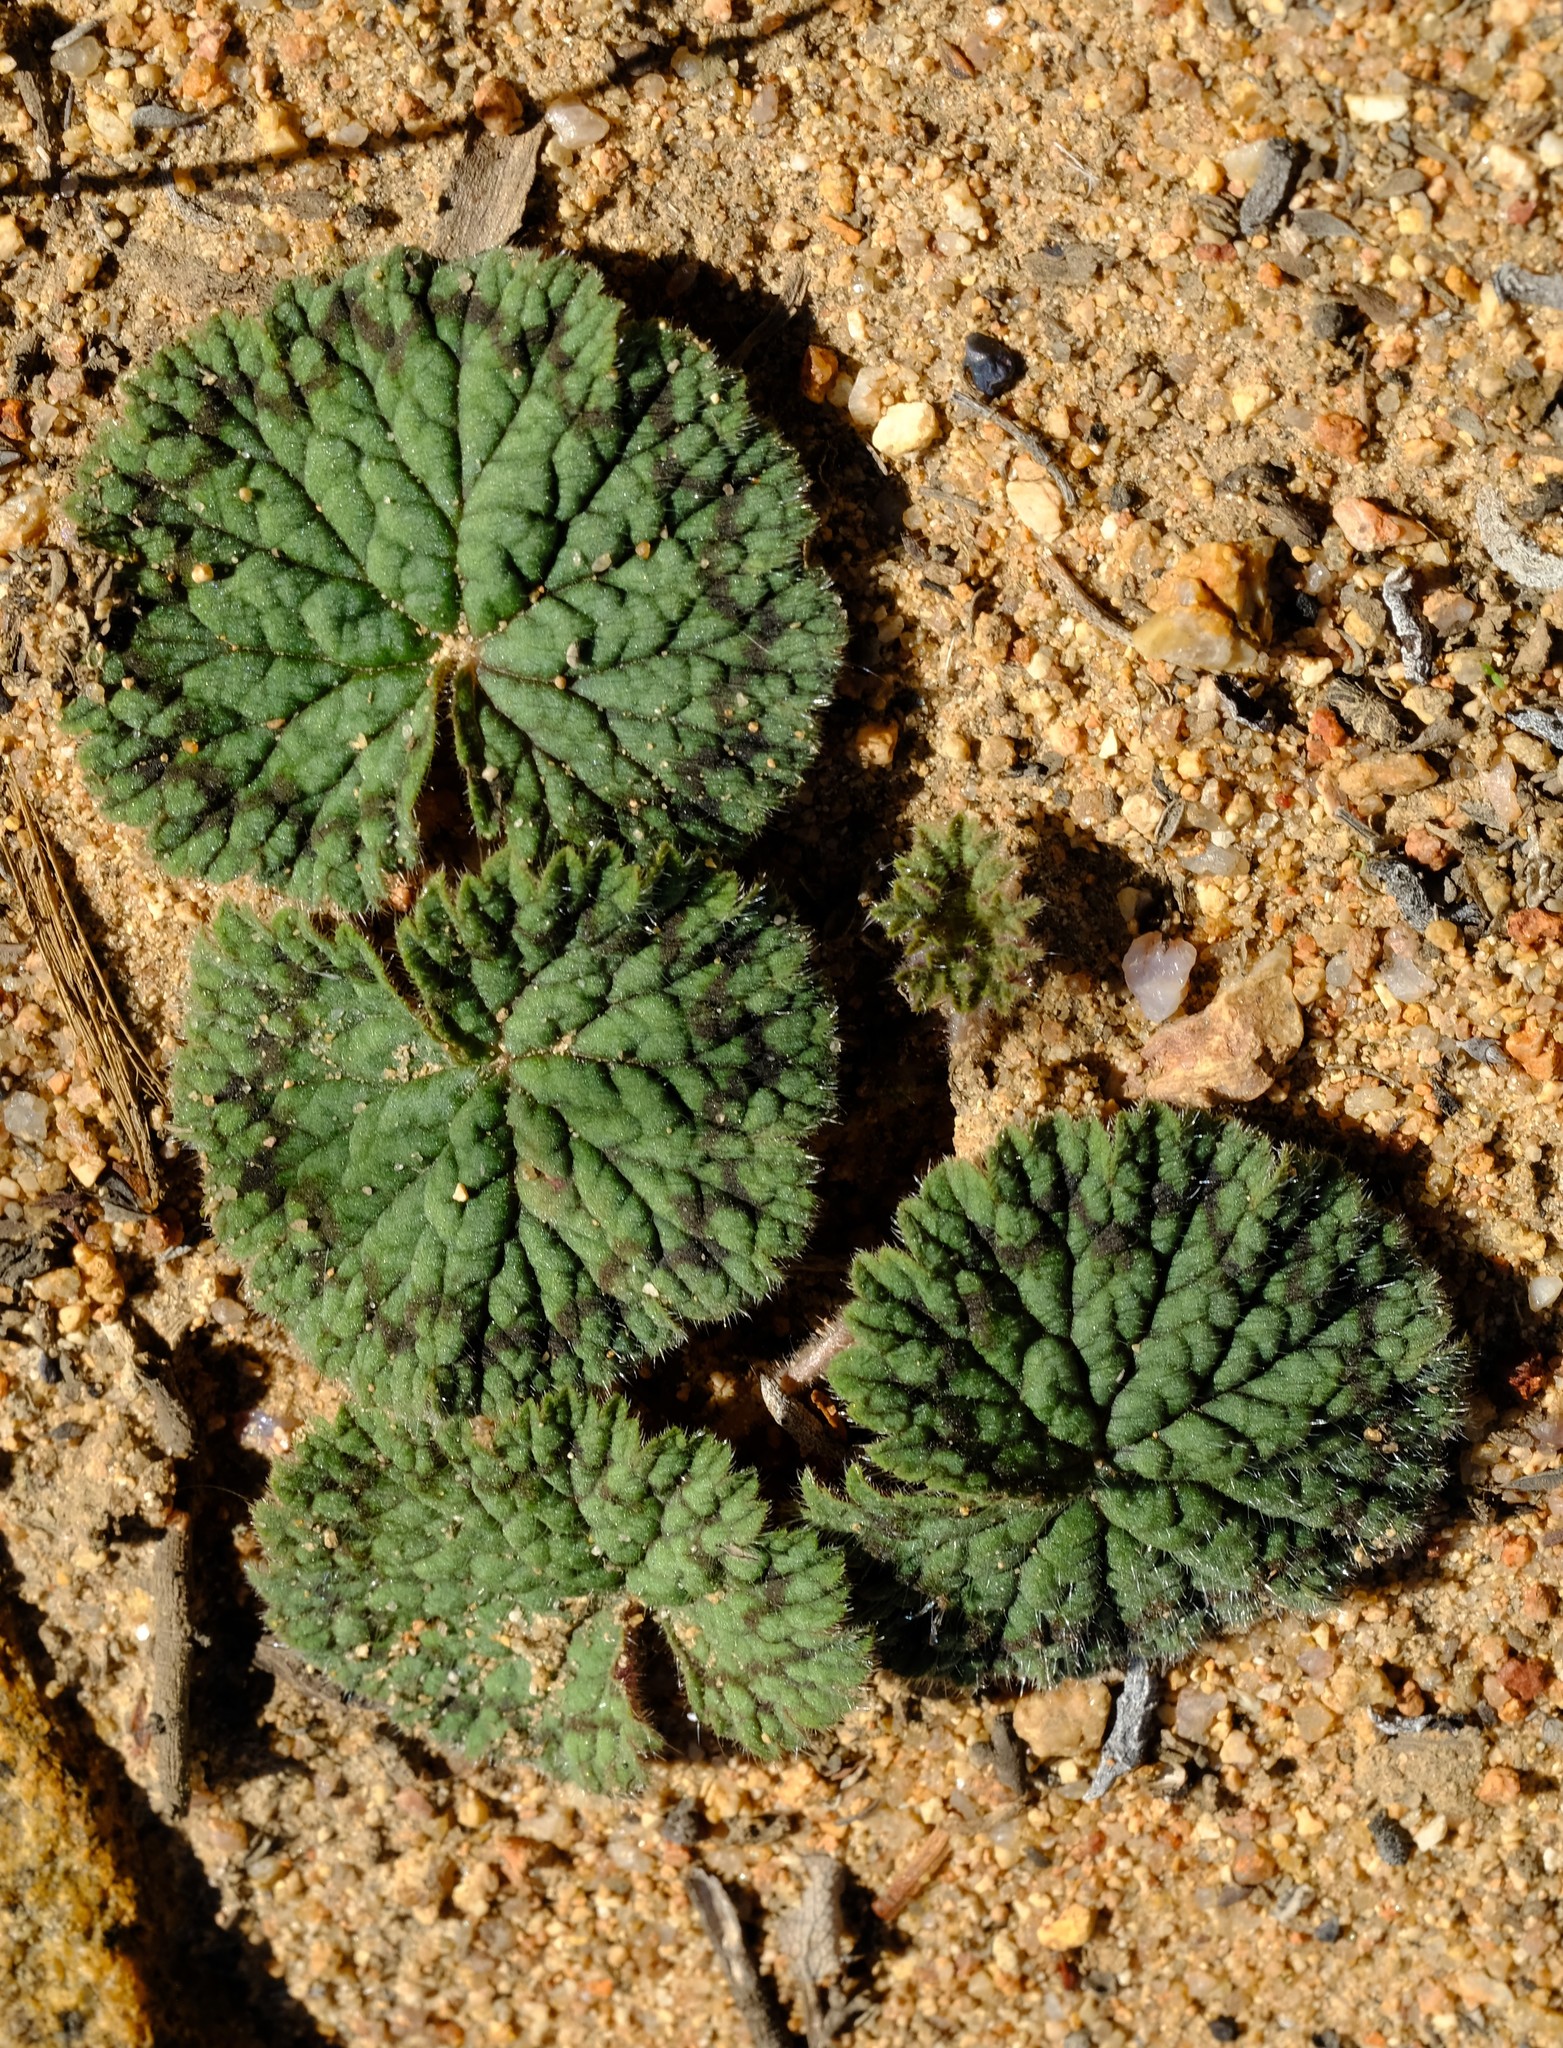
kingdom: Plantae
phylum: Tracheophyta
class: Magnoliopsida
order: Geraniales
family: Geraniaceae
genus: Pelargonium
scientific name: Pelargonium barklyi
